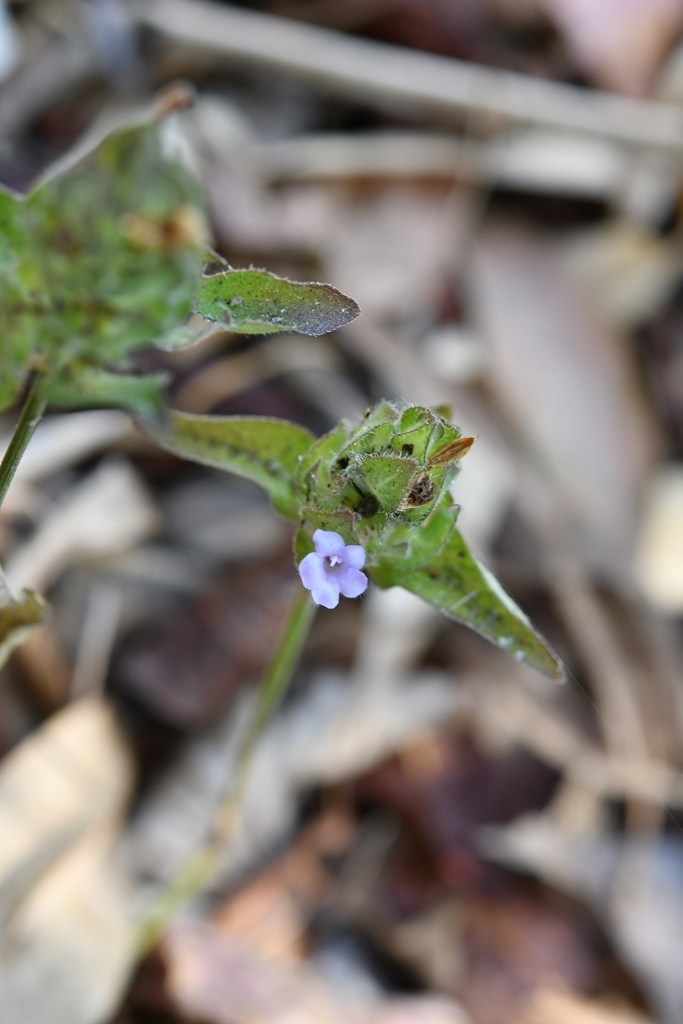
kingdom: Plantae
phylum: Tracheophyta
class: Magnoliopsida
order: Lamiales
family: Acanthaceae
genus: Ruellia
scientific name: Ruellia blechum
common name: Browne's blechum
